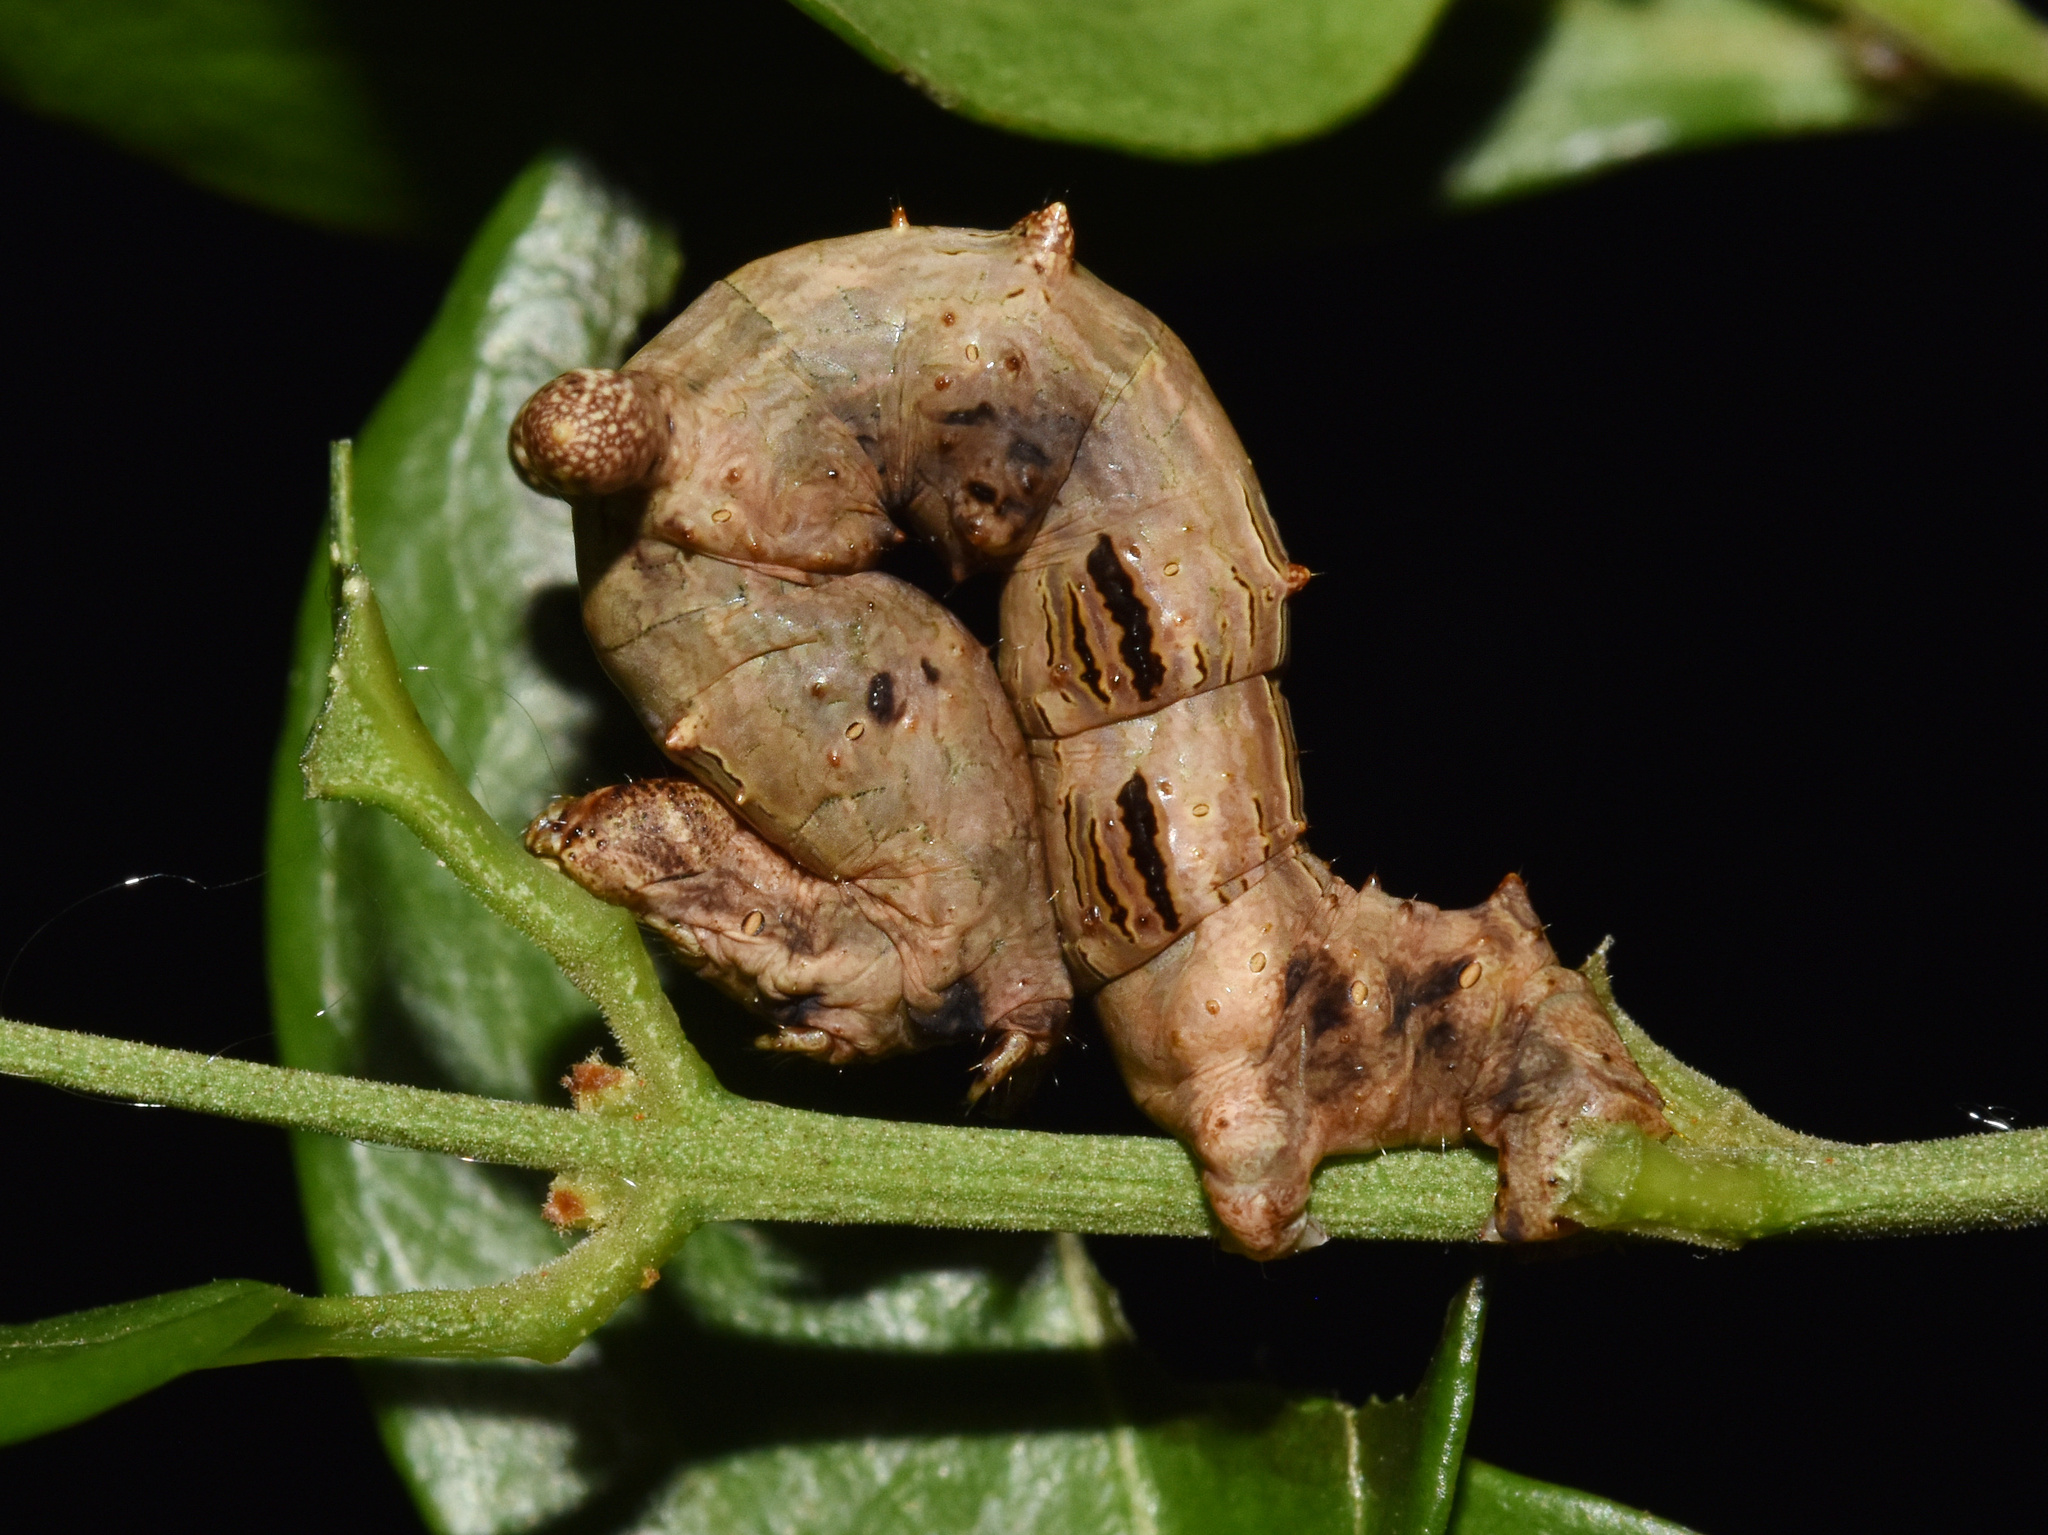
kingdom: Animalia
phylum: Arthropoda
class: Insecta
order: Lepidoptera
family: Geometridae
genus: Xenimpia
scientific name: Xenimpia erosa
